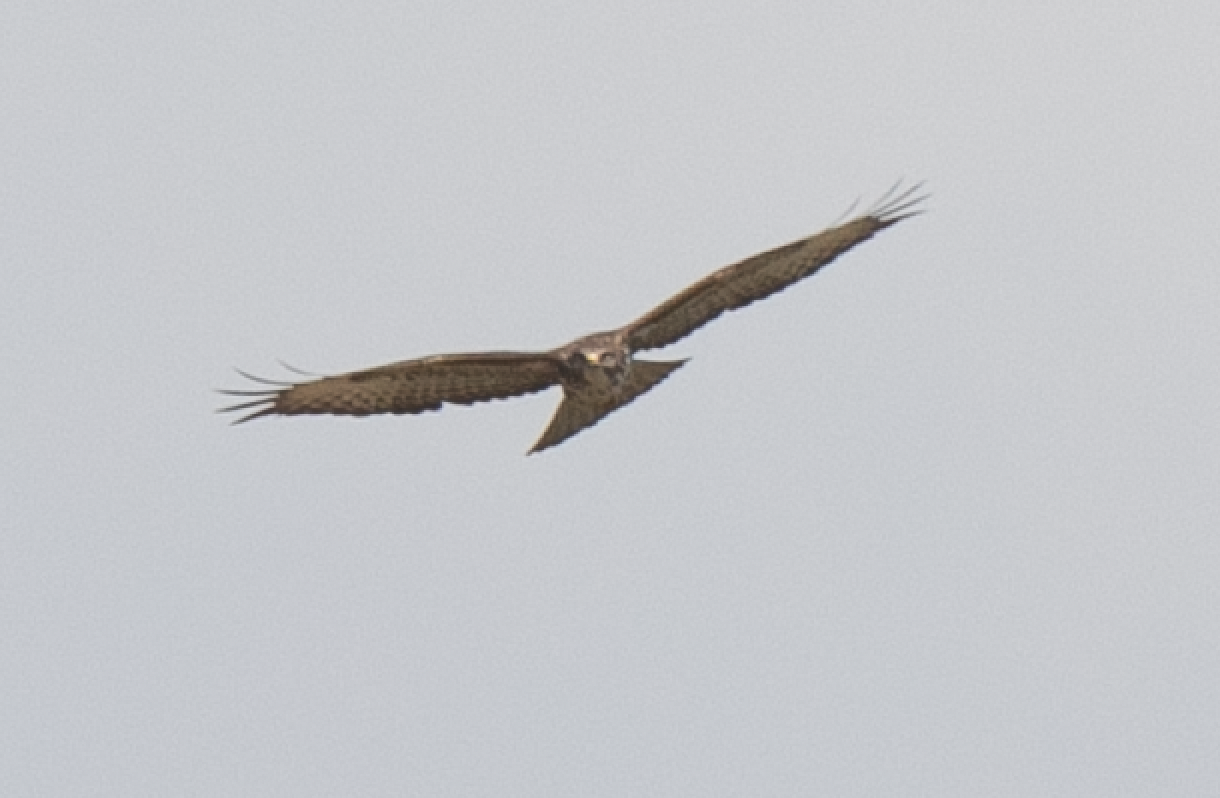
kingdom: Animalia
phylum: Chordata
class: Aves
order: Accipitriformes
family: Accipitridae
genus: Buteo
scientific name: Buteo buteo
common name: Common buzzard
